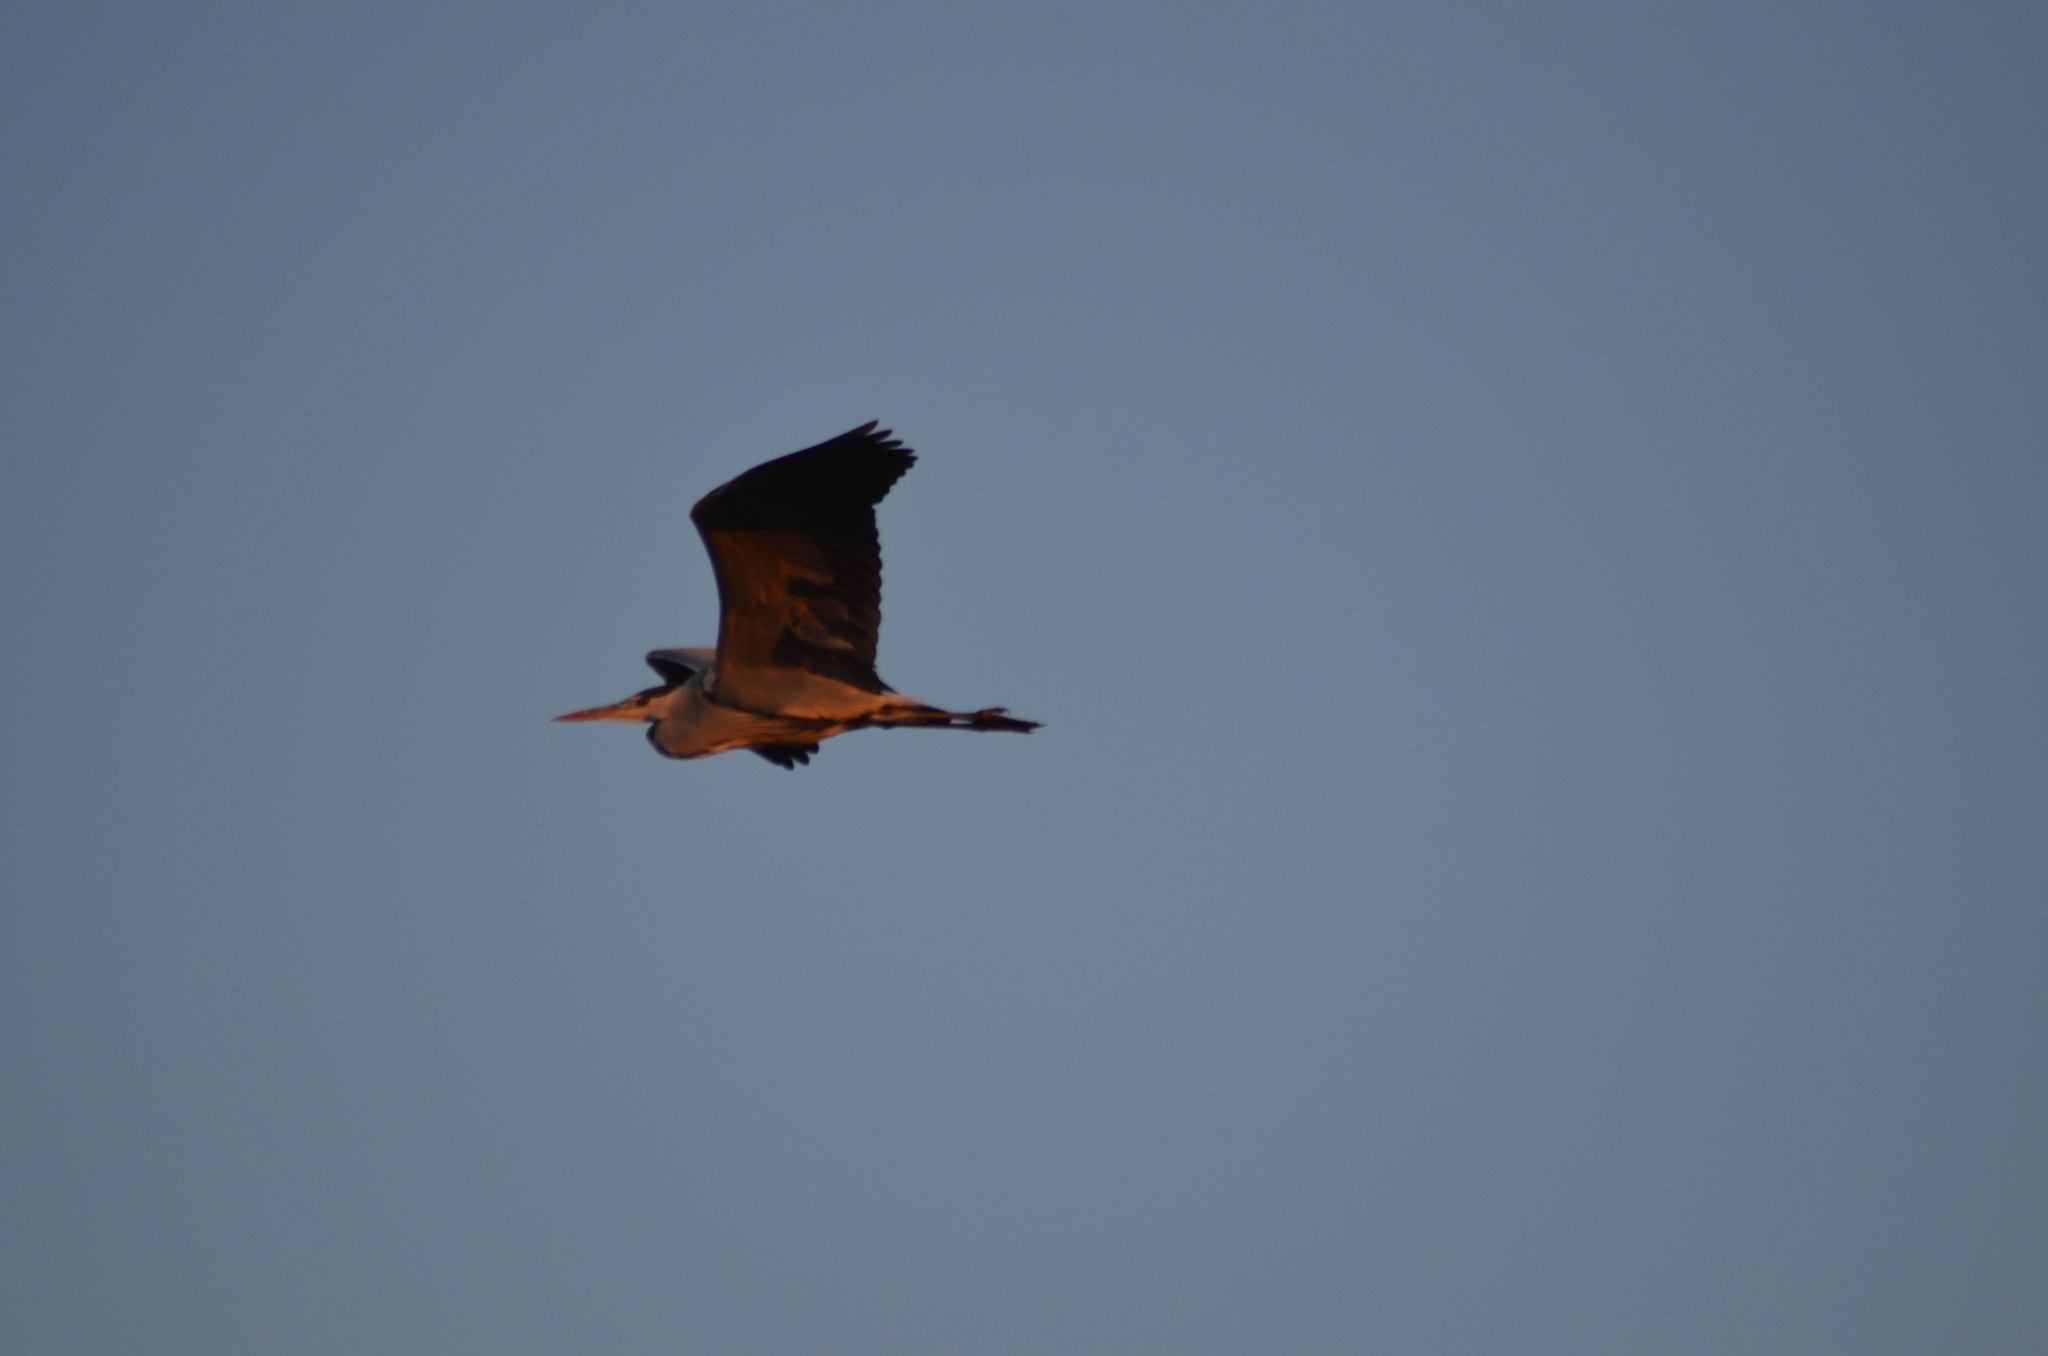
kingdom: Animalia
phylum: Chordata
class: Aves
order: Pelecaniformes
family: Ardeidae
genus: Ardea
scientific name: Ardea cinerea
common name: Grey heron
